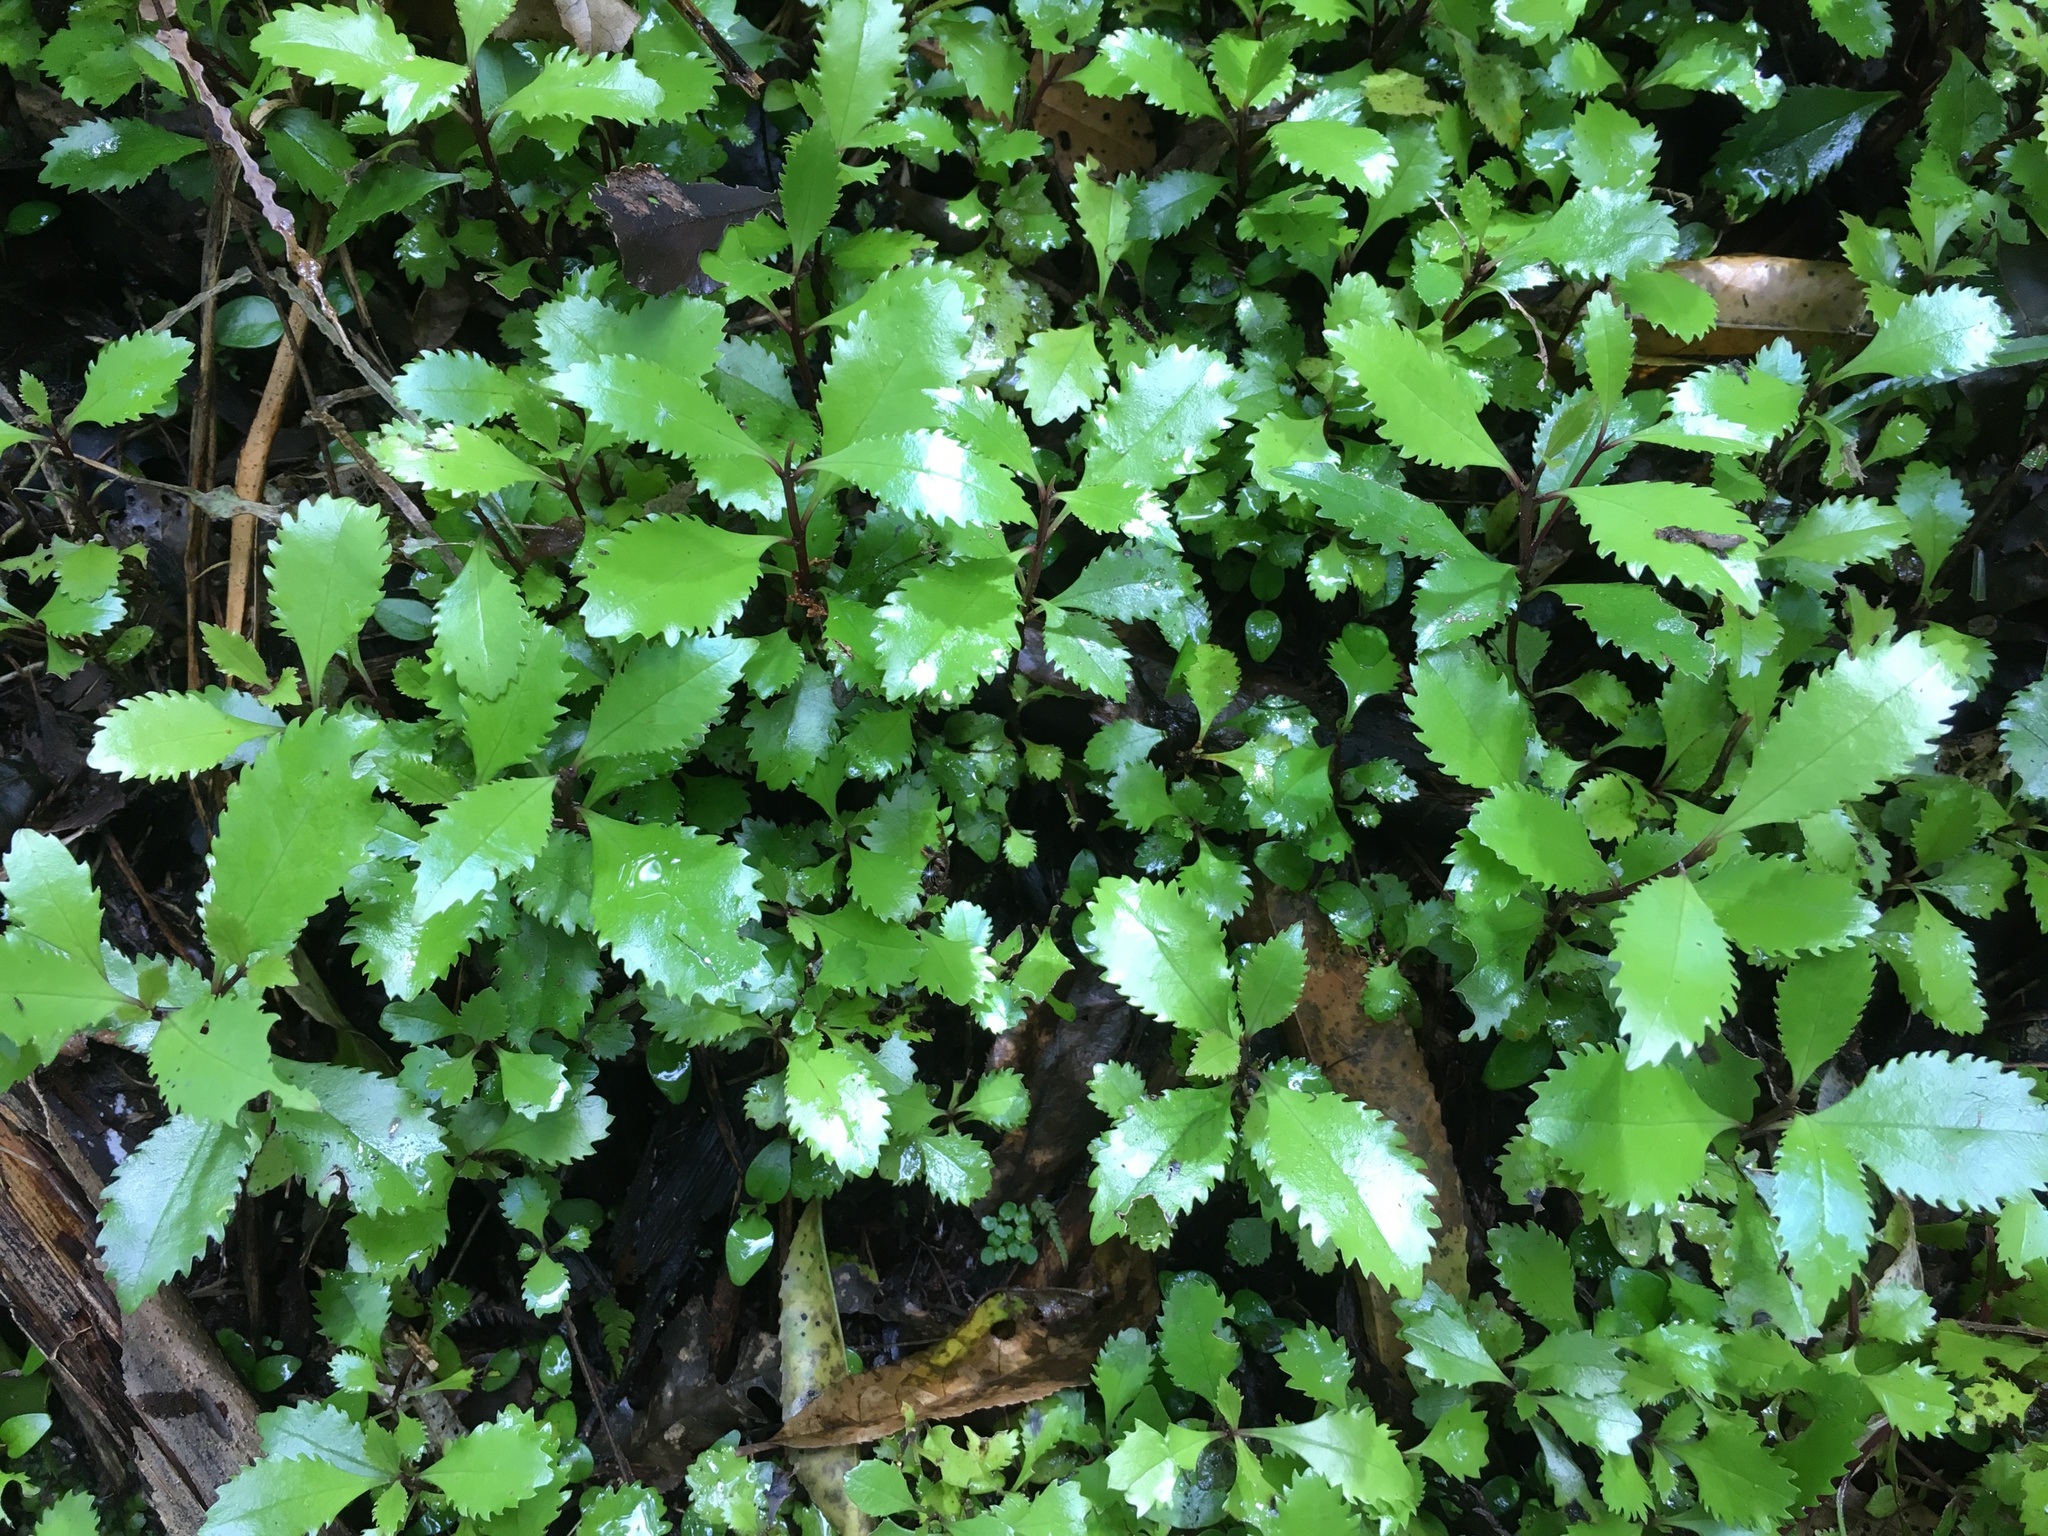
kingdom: Plantae
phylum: Tracheophyta
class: Magnoliopsida
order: Laurales
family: Atherospermataceae
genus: Laurelia
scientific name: Laurelia novae-zelandiae
